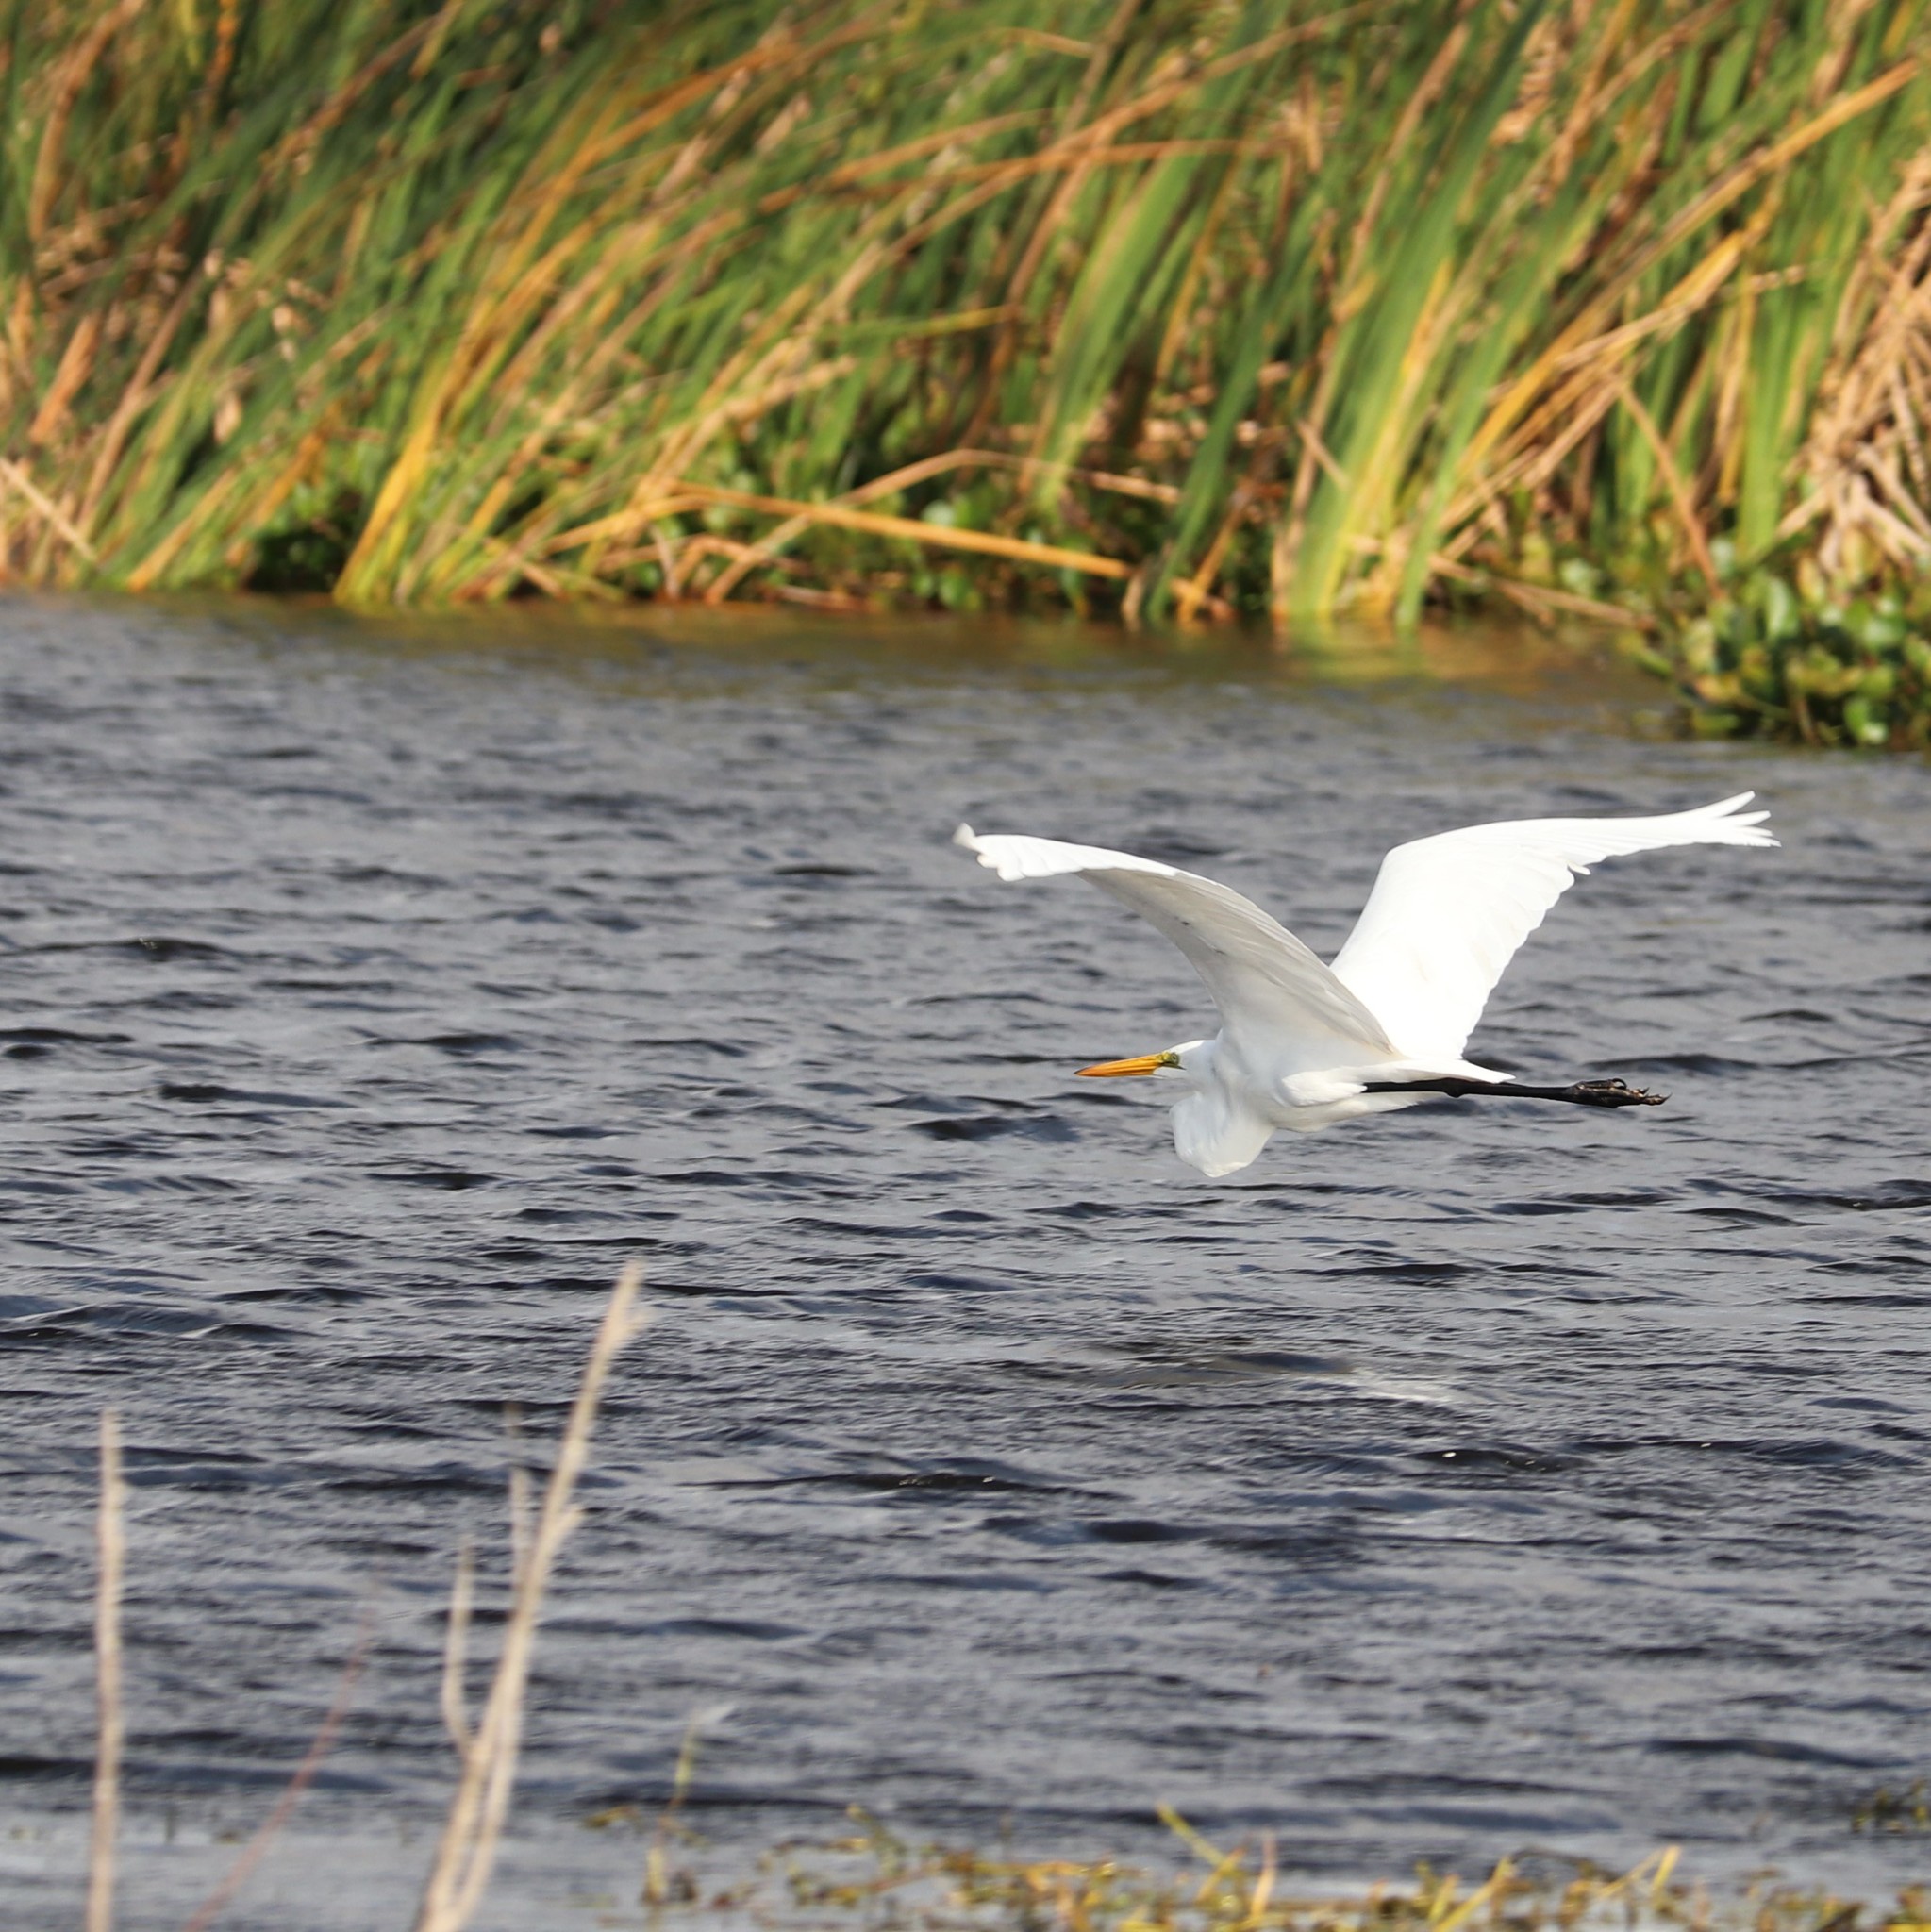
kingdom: Animalia
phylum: Chordata
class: Aves
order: Pelecaniformes
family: Ardeidae
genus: Ardea
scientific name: Ardea alba
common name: Great egret
